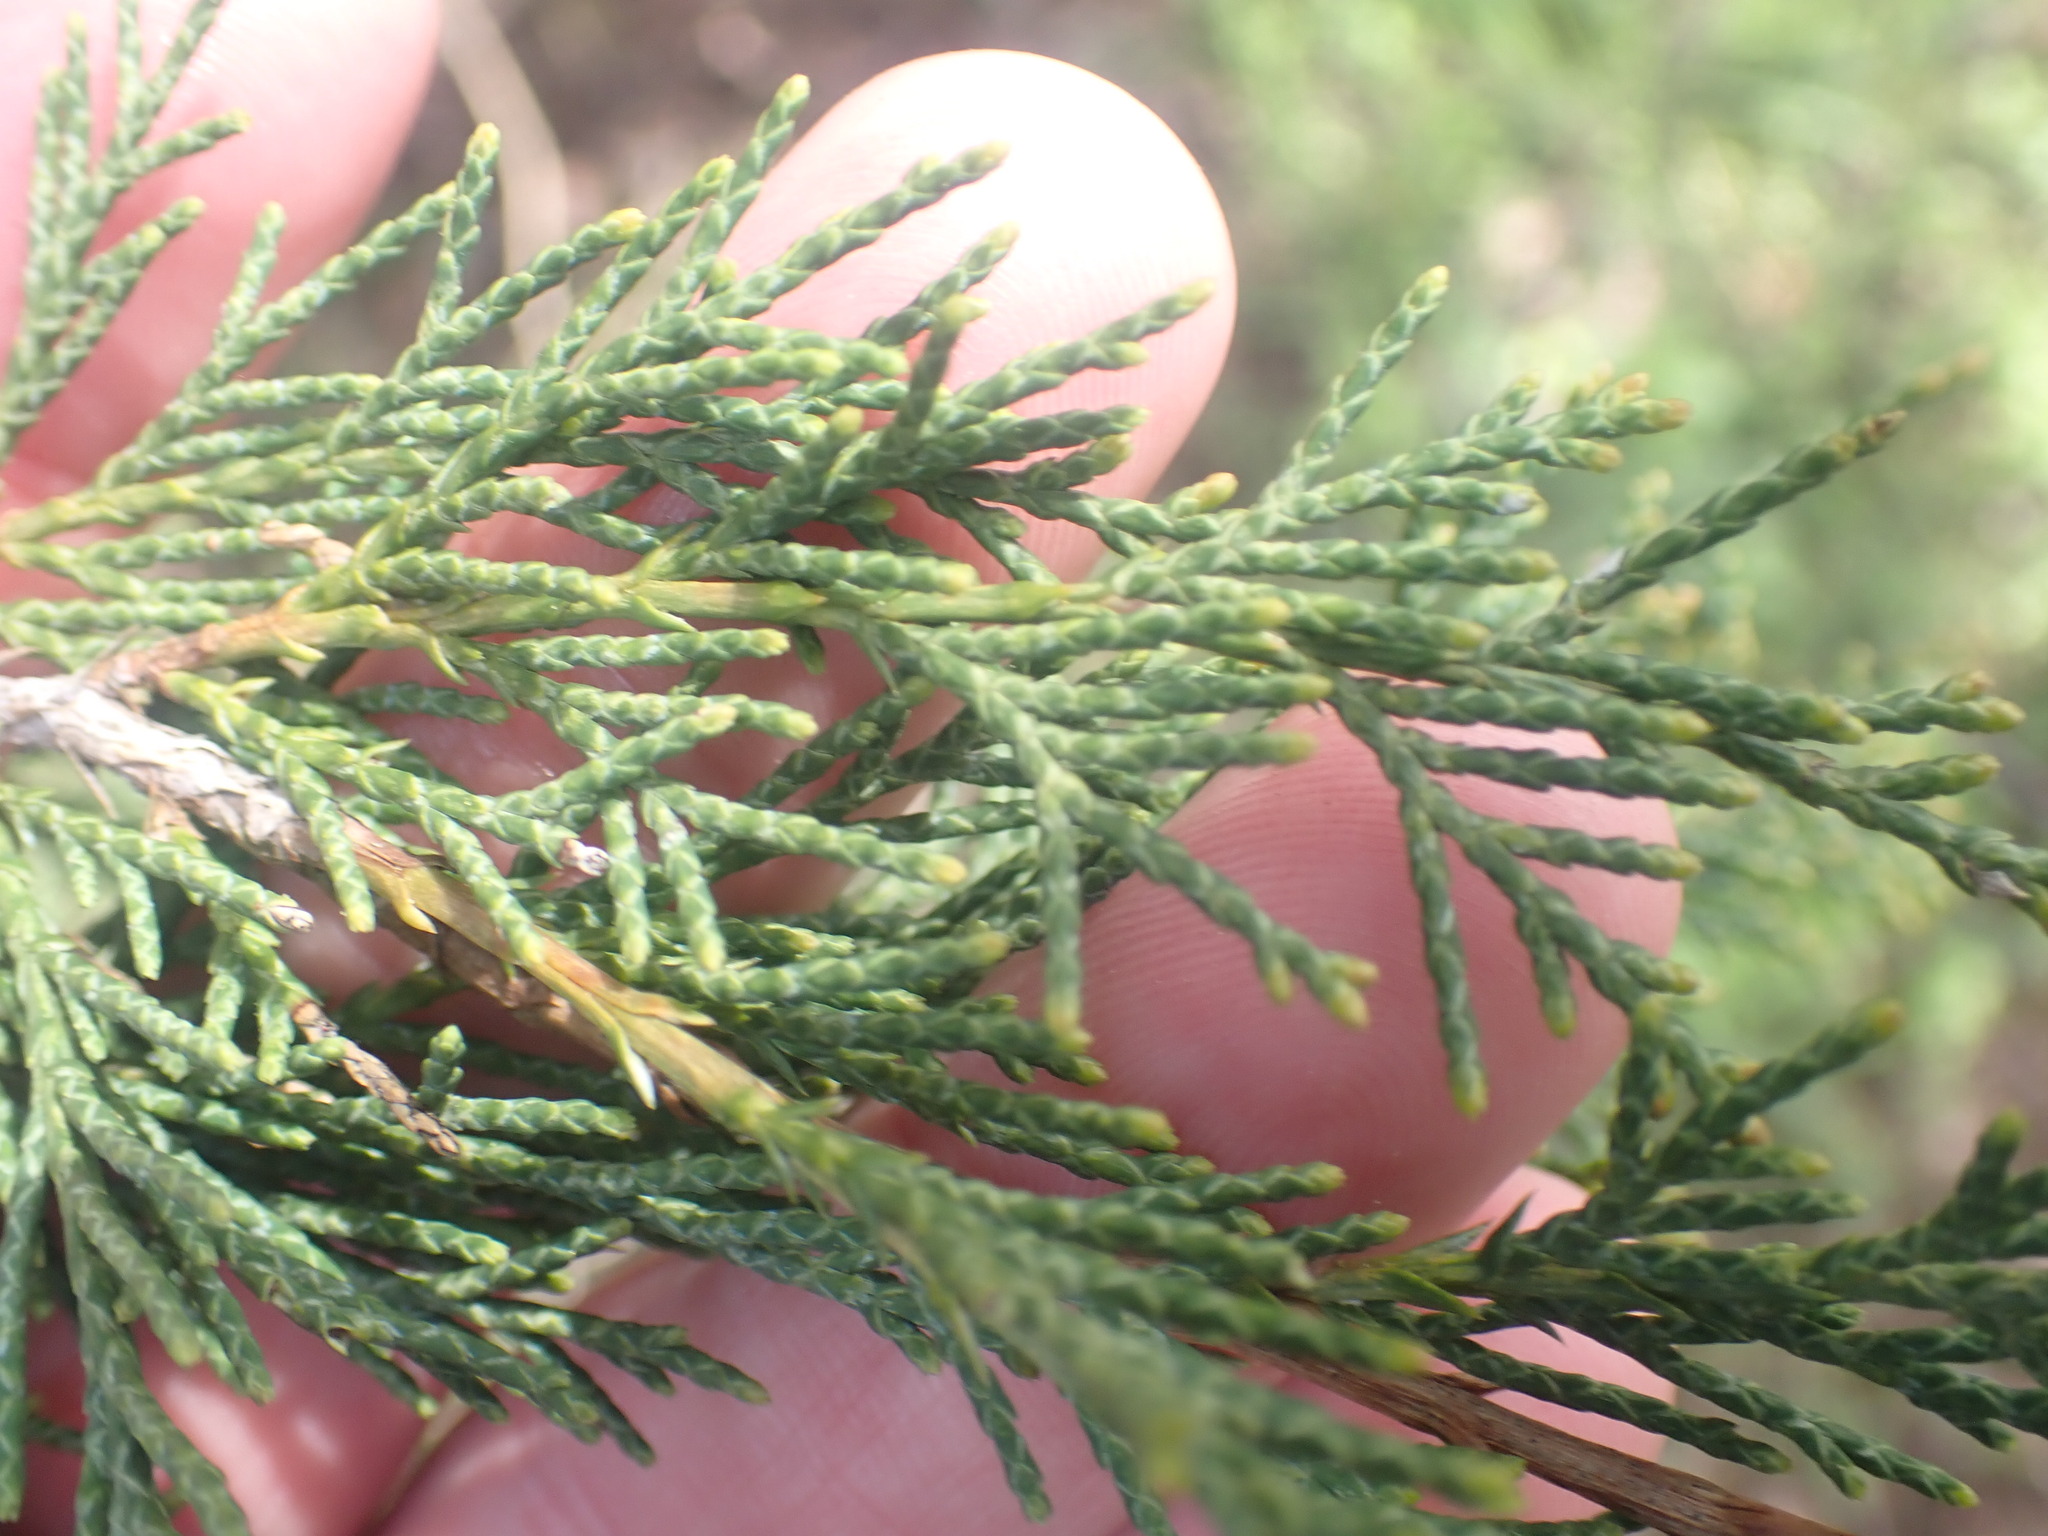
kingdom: Plantae
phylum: Tracheophyta
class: Pinopsida
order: Pinales
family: Cupressaceae
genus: Juniperus
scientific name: Juniperus scopulorum
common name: Rocky mountain juniper
